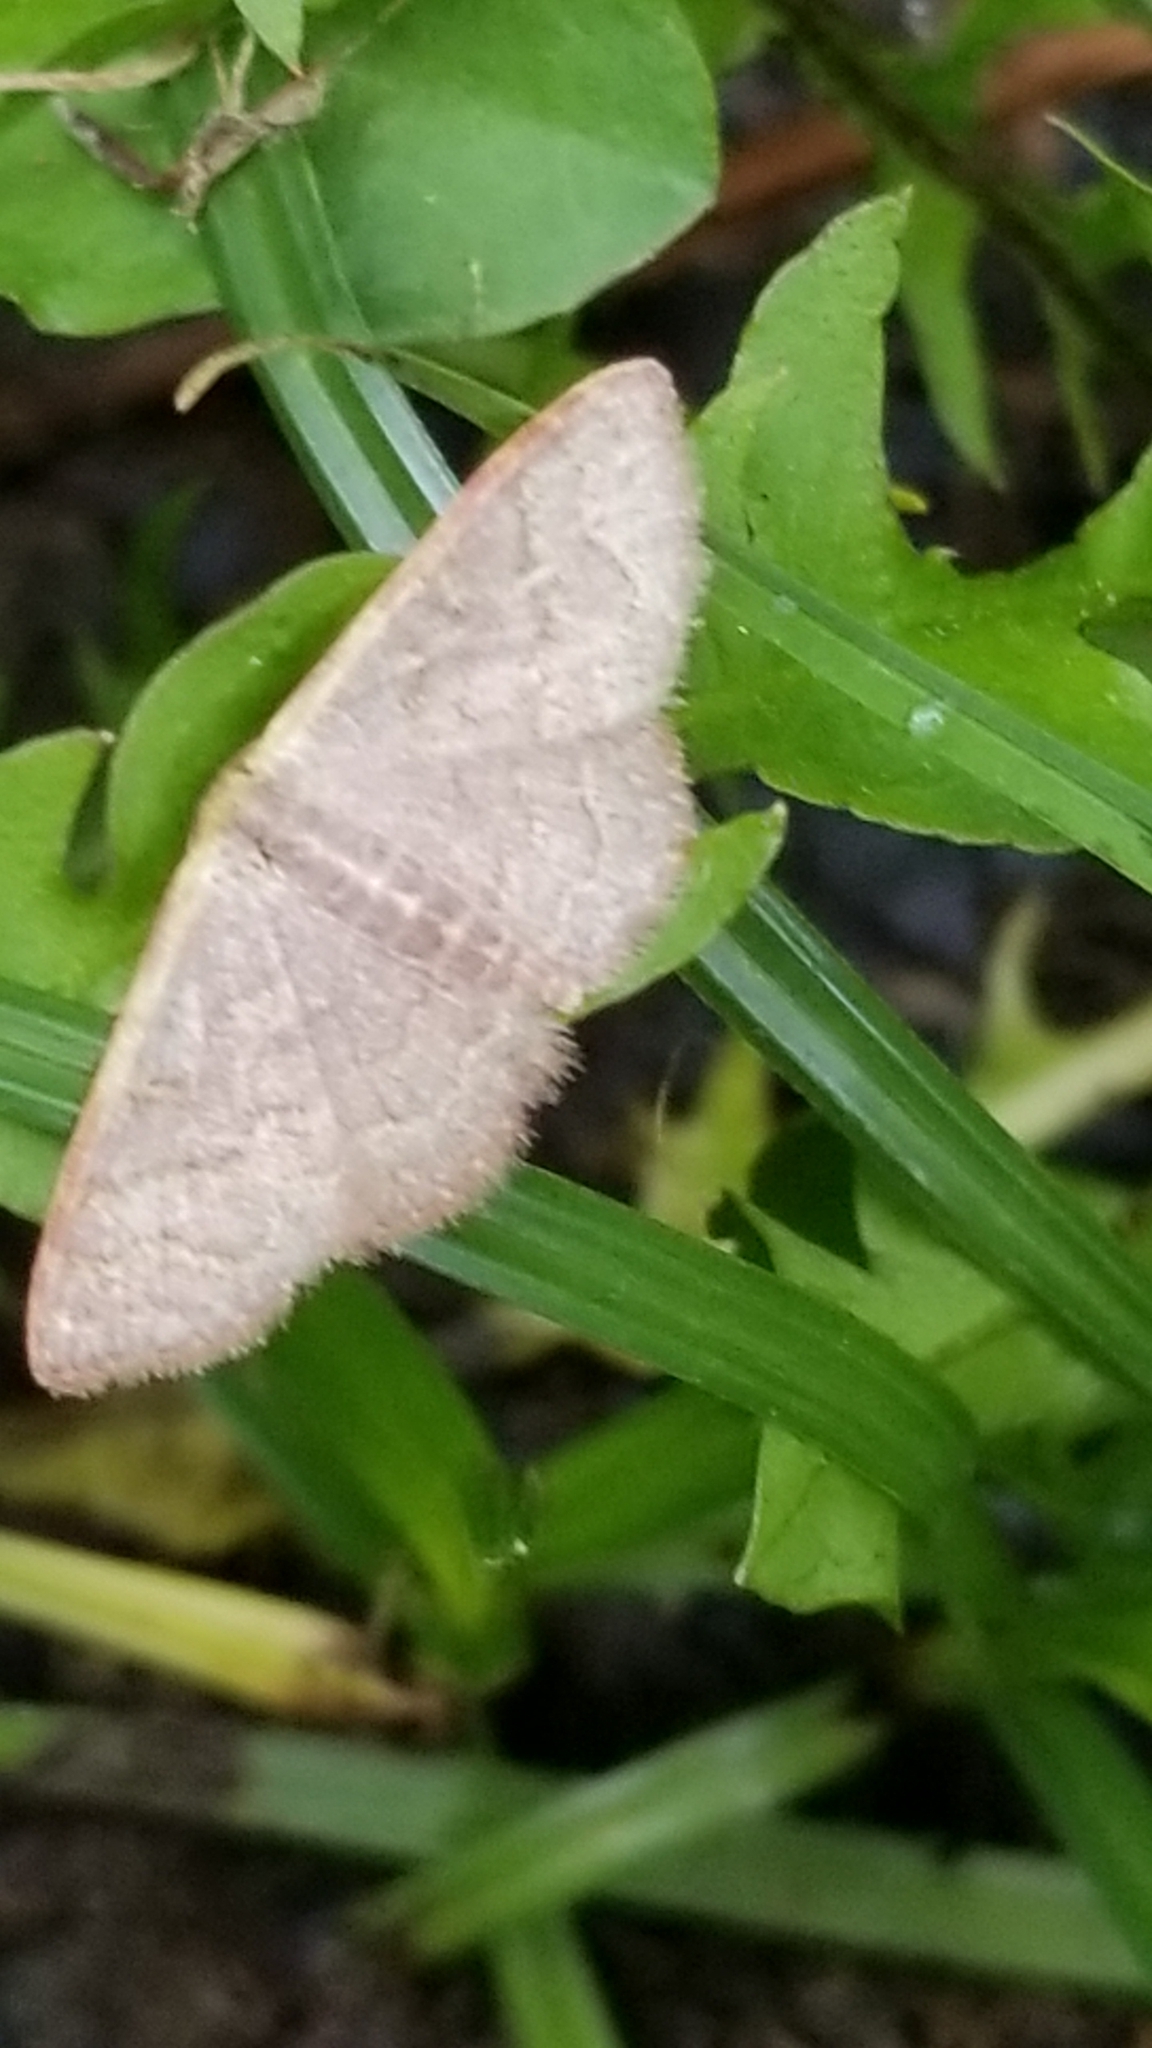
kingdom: Animalia
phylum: Arthropoda
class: Insecta
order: Lepidoptera
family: Geometridae
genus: Pleuroprucha
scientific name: Pleuroprucha insulsaria
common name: Common tan wave
